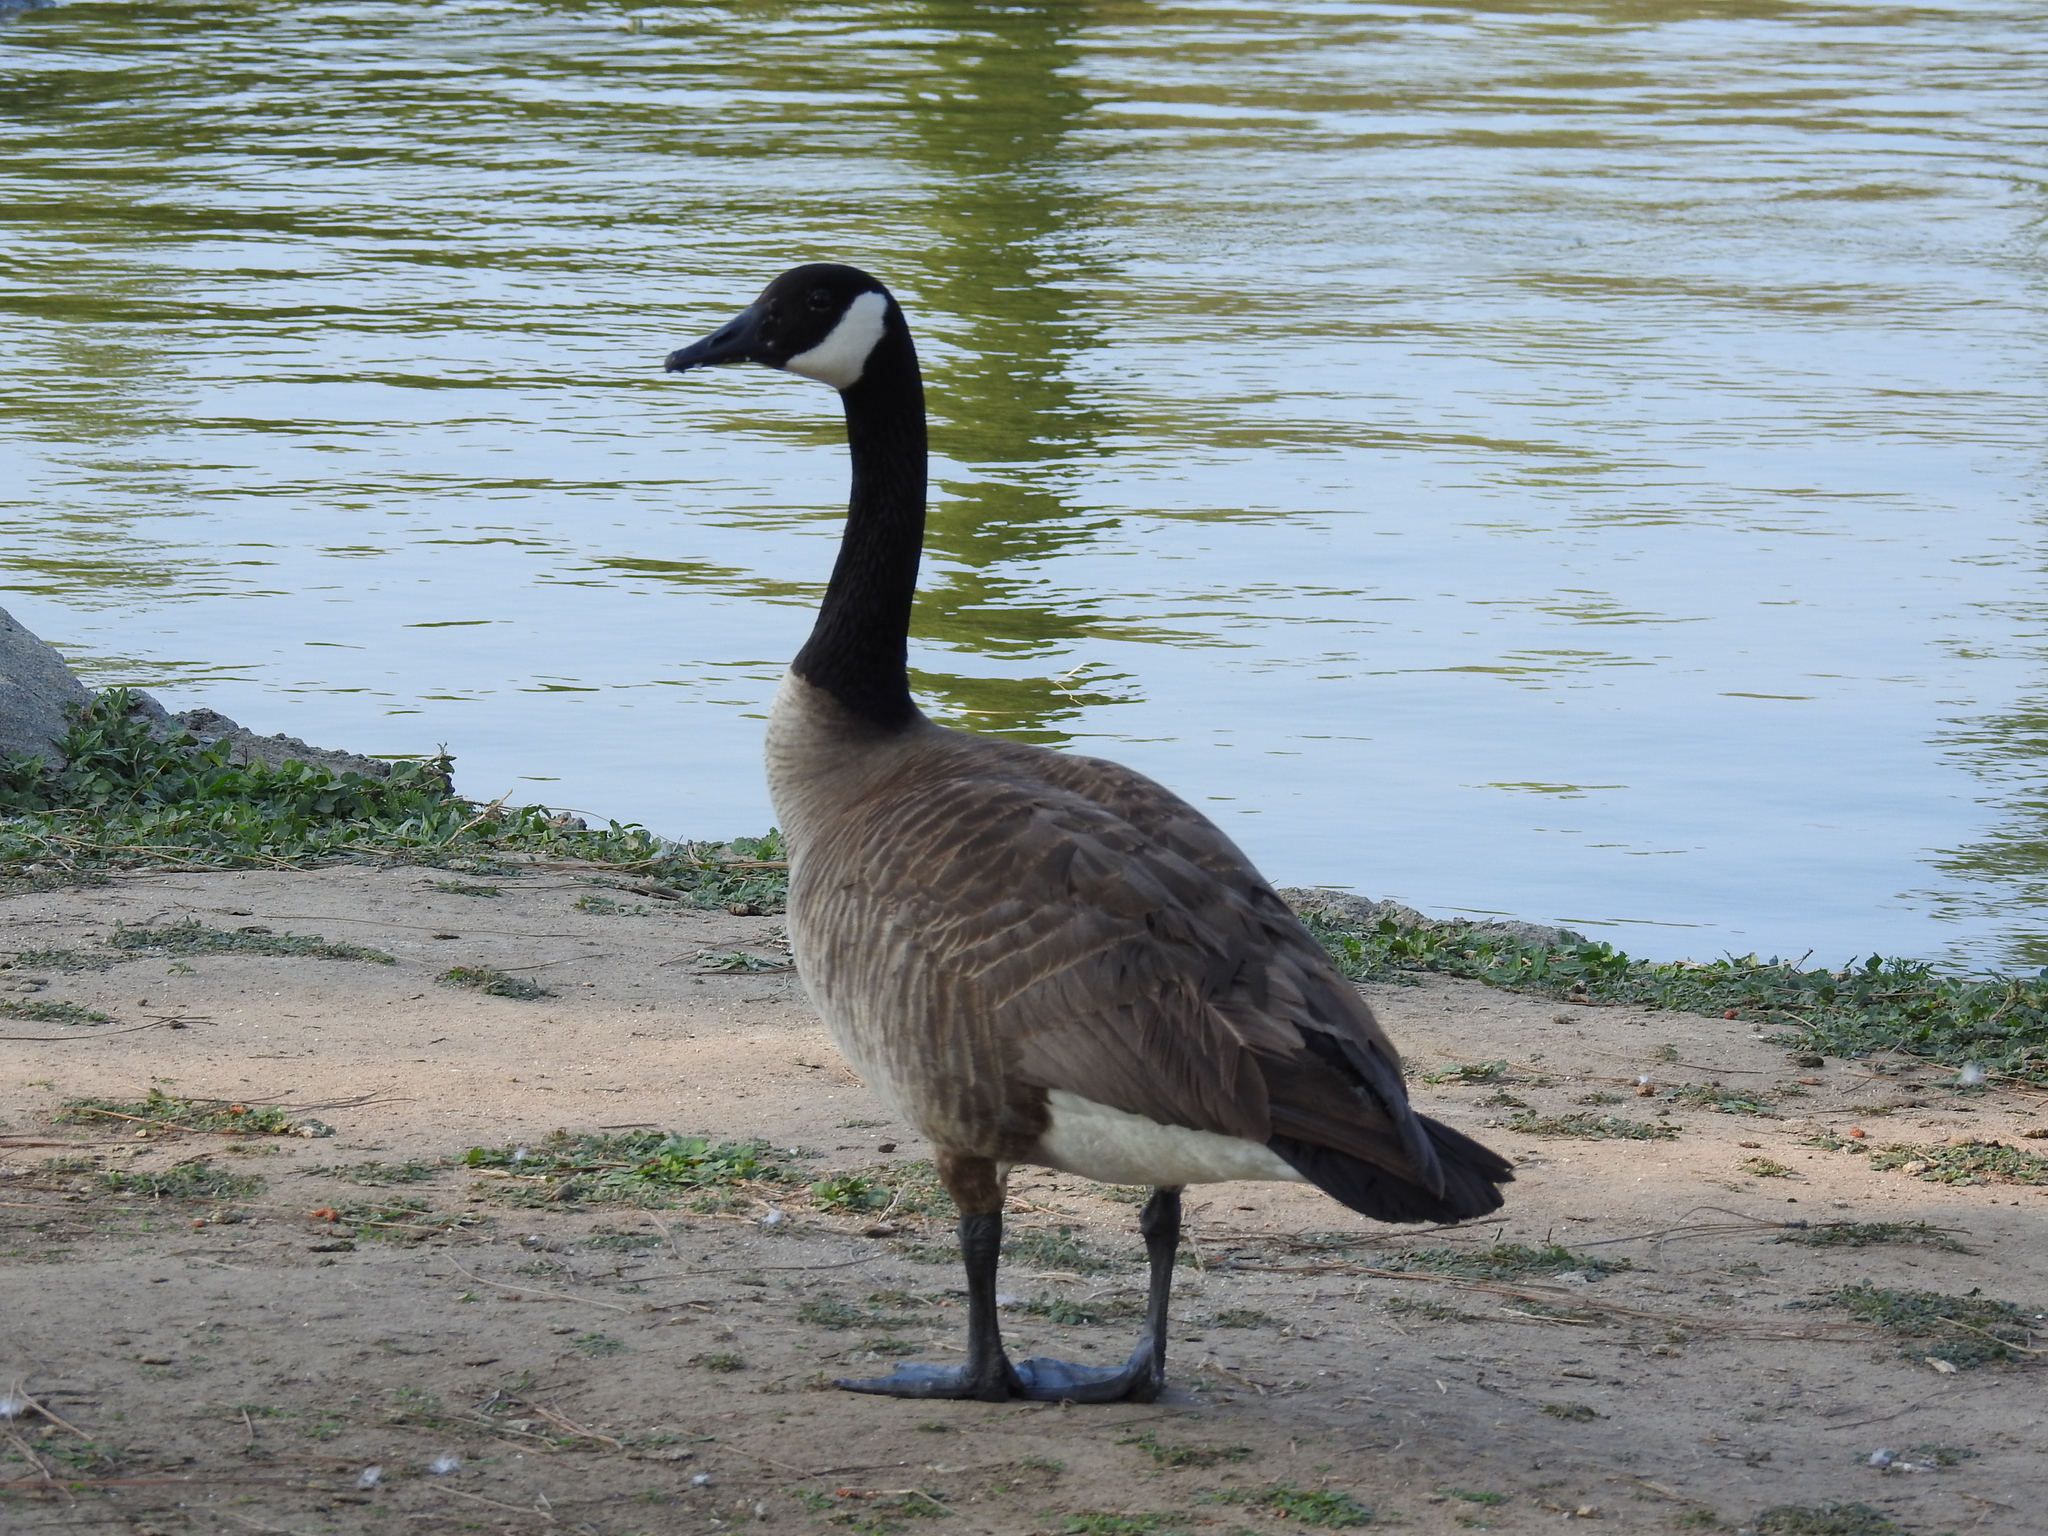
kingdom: Animalia
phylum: Chordata
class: Aves
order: Anseriformes
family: Anatidae
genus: Branta
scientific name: Branta canadensis
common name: Canada goose
